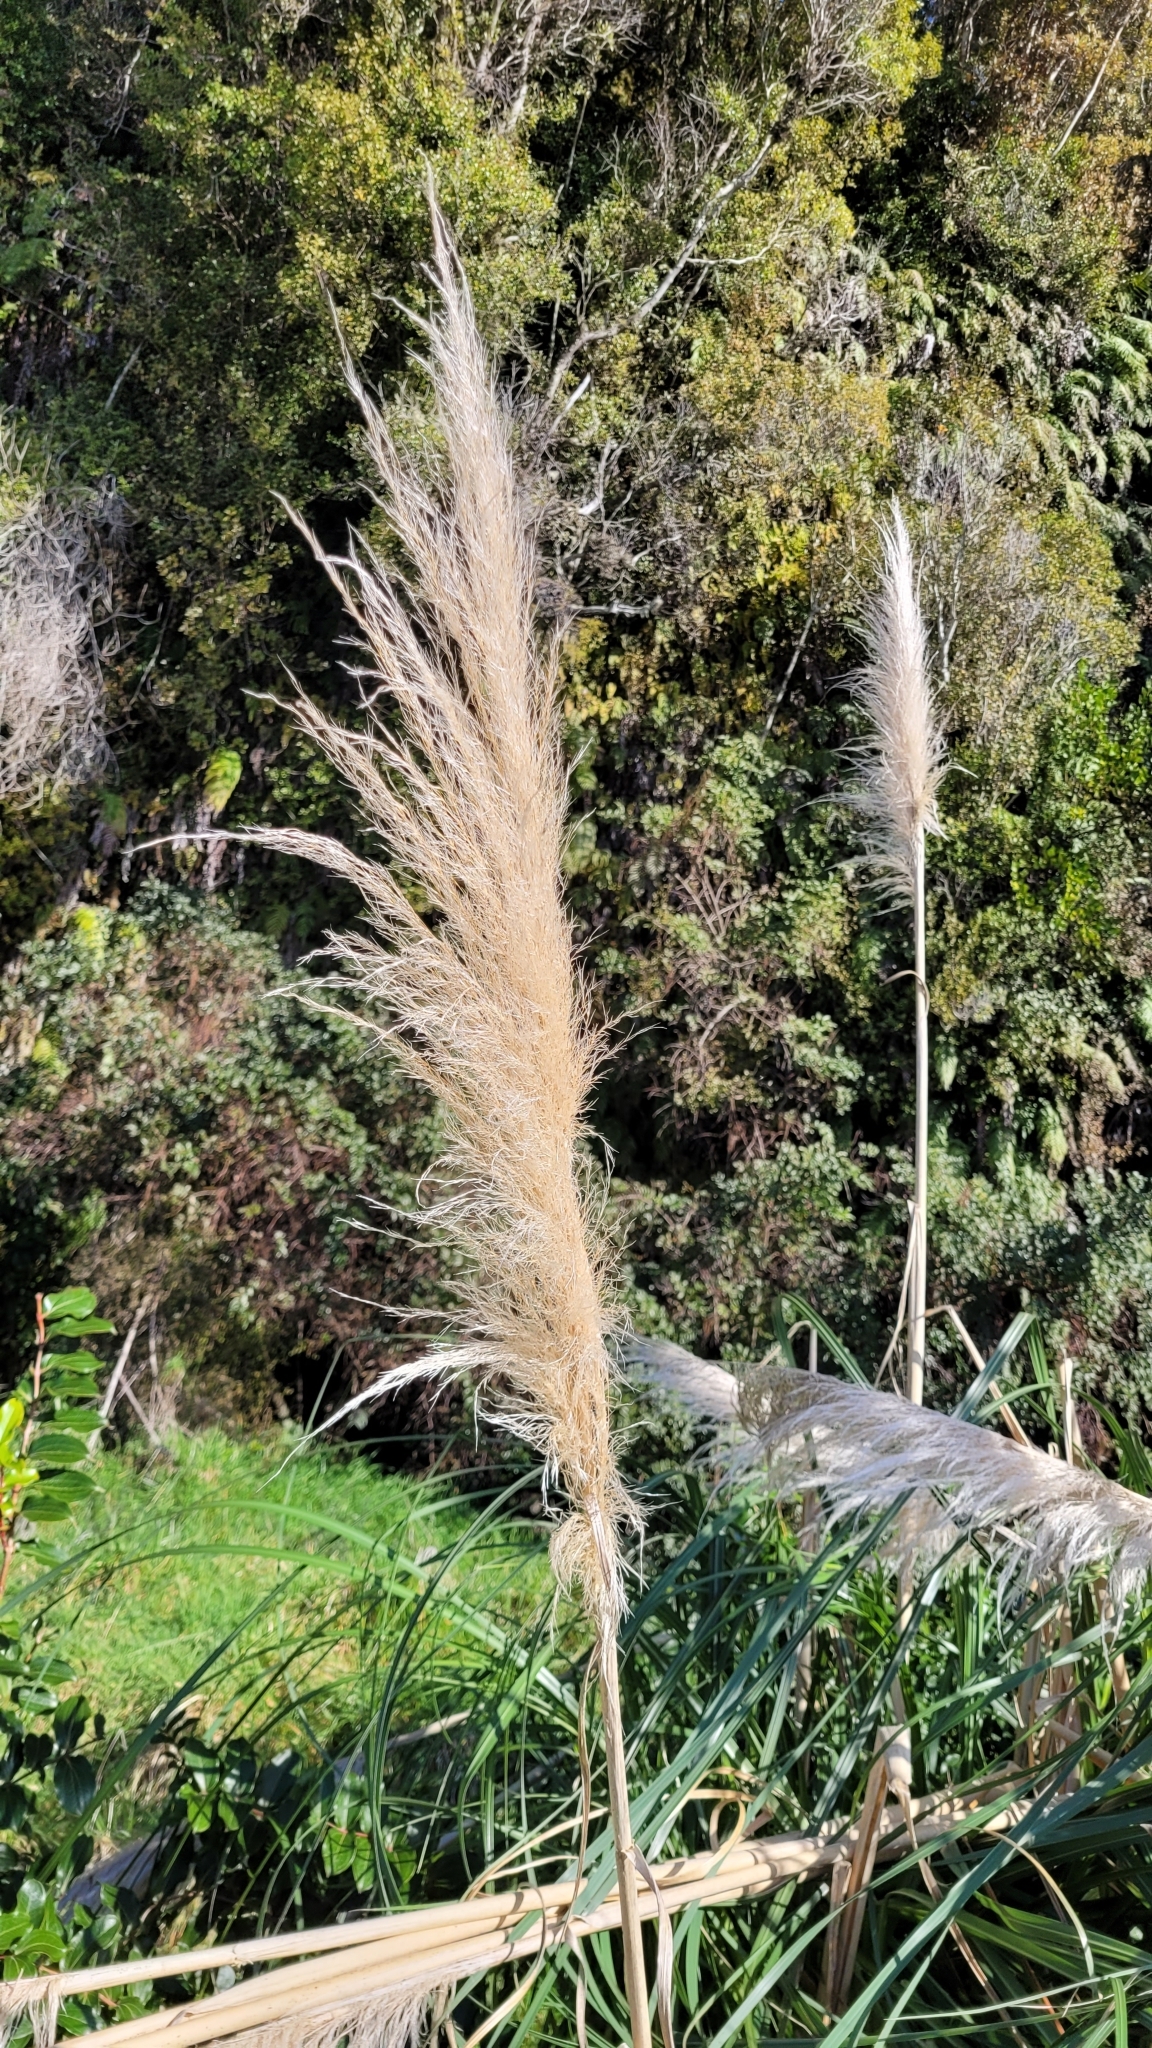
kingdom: Plantae
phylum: Tracheophyta
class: Liliopsida
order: Poales
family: Poaceae
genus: Cortaderia
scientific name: Cortaderia jubata
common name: Purple pampas grass
